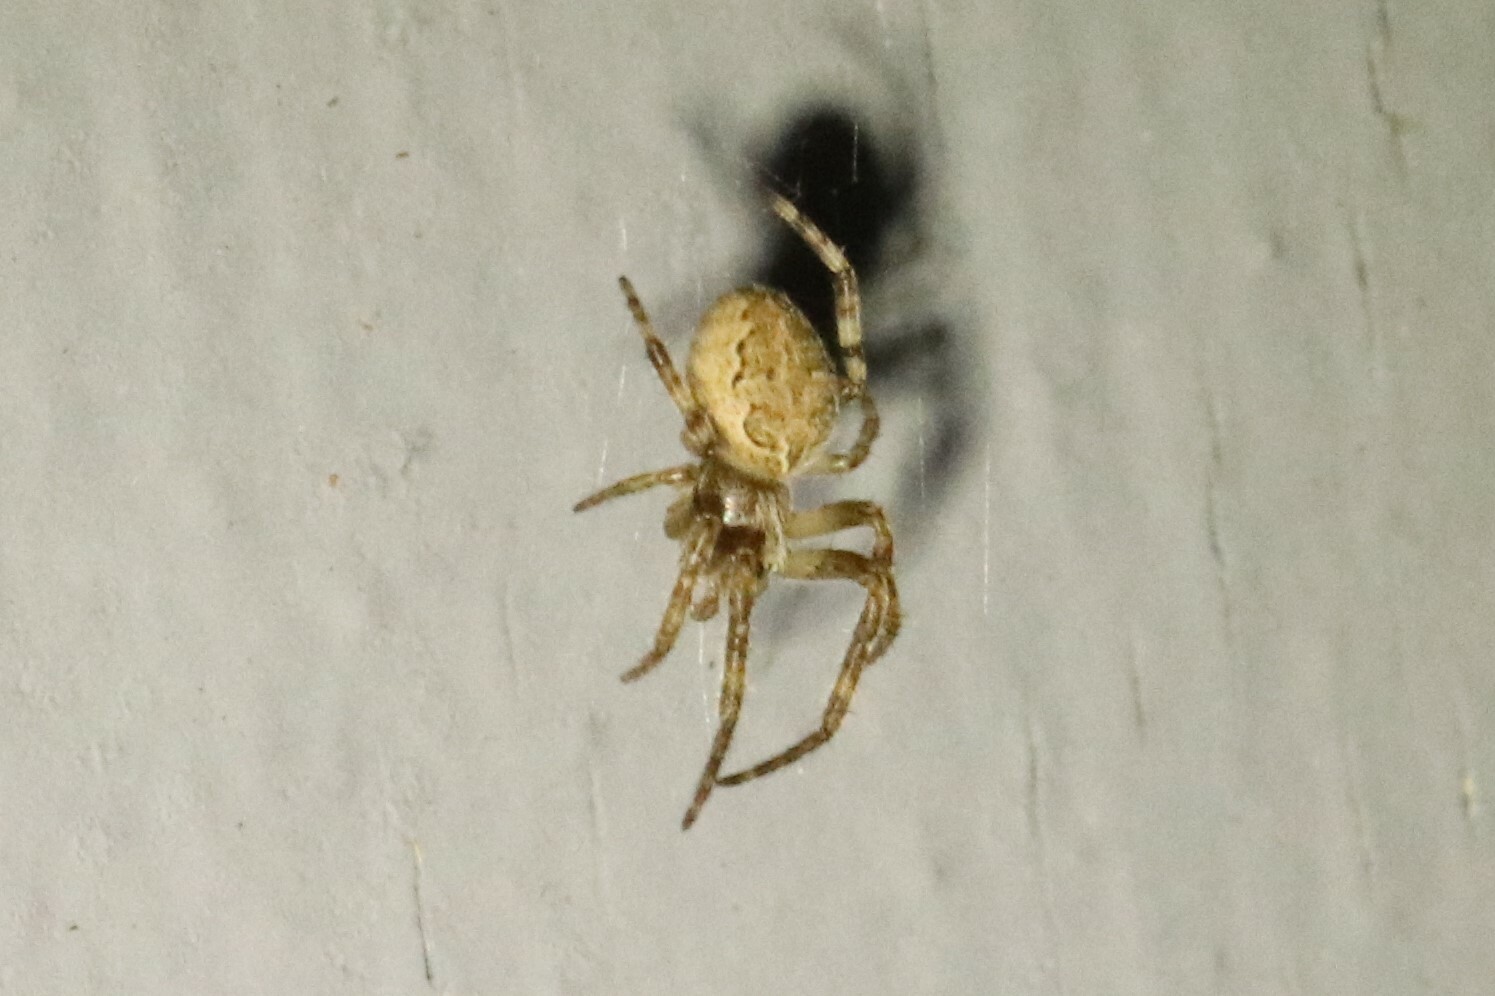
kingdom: Animalia
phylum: Arthropoda
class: Arachnida
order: Araneae
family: Araneidae
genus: Larinioides
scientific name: Larinioides sclopetarius
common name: Bridge orbweaver
